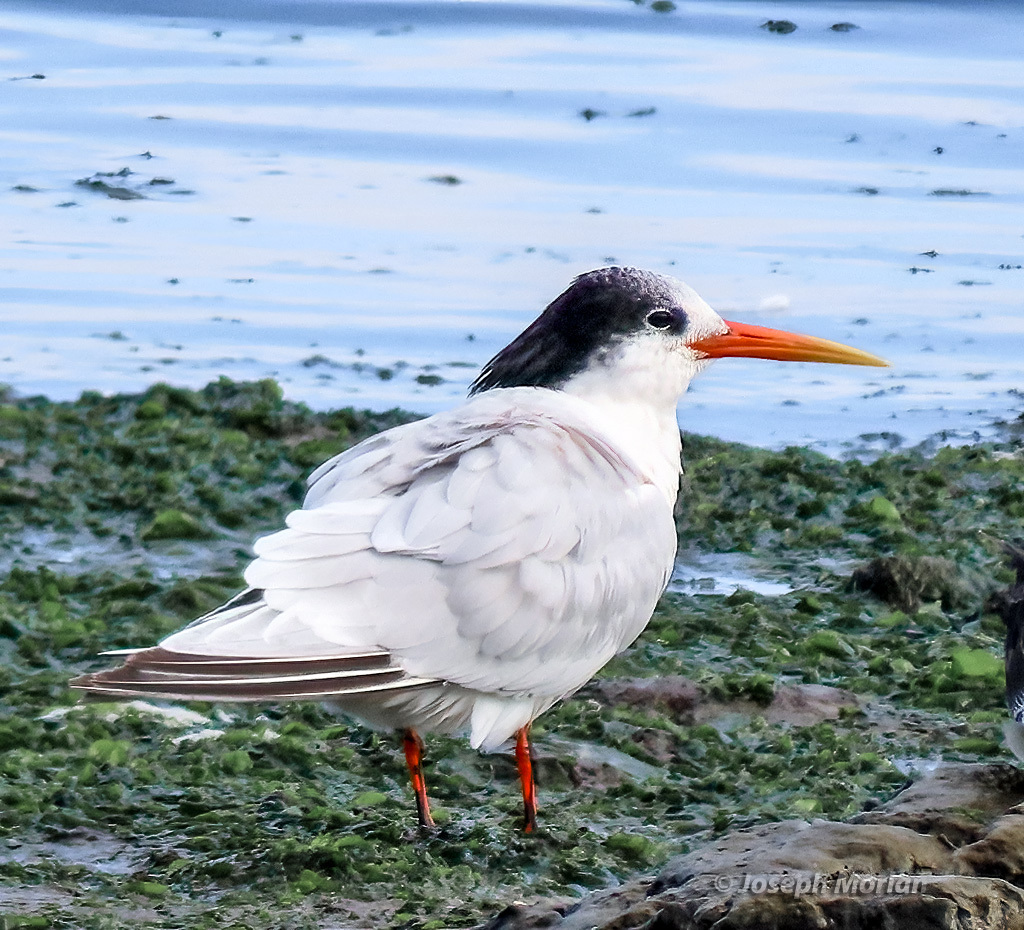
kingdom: Animalia
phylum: Chordata
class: Aves
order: Charadriiformes
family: Laridae
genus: Thalasseus
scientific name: Thalasseus elegans
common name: Elegant tern
